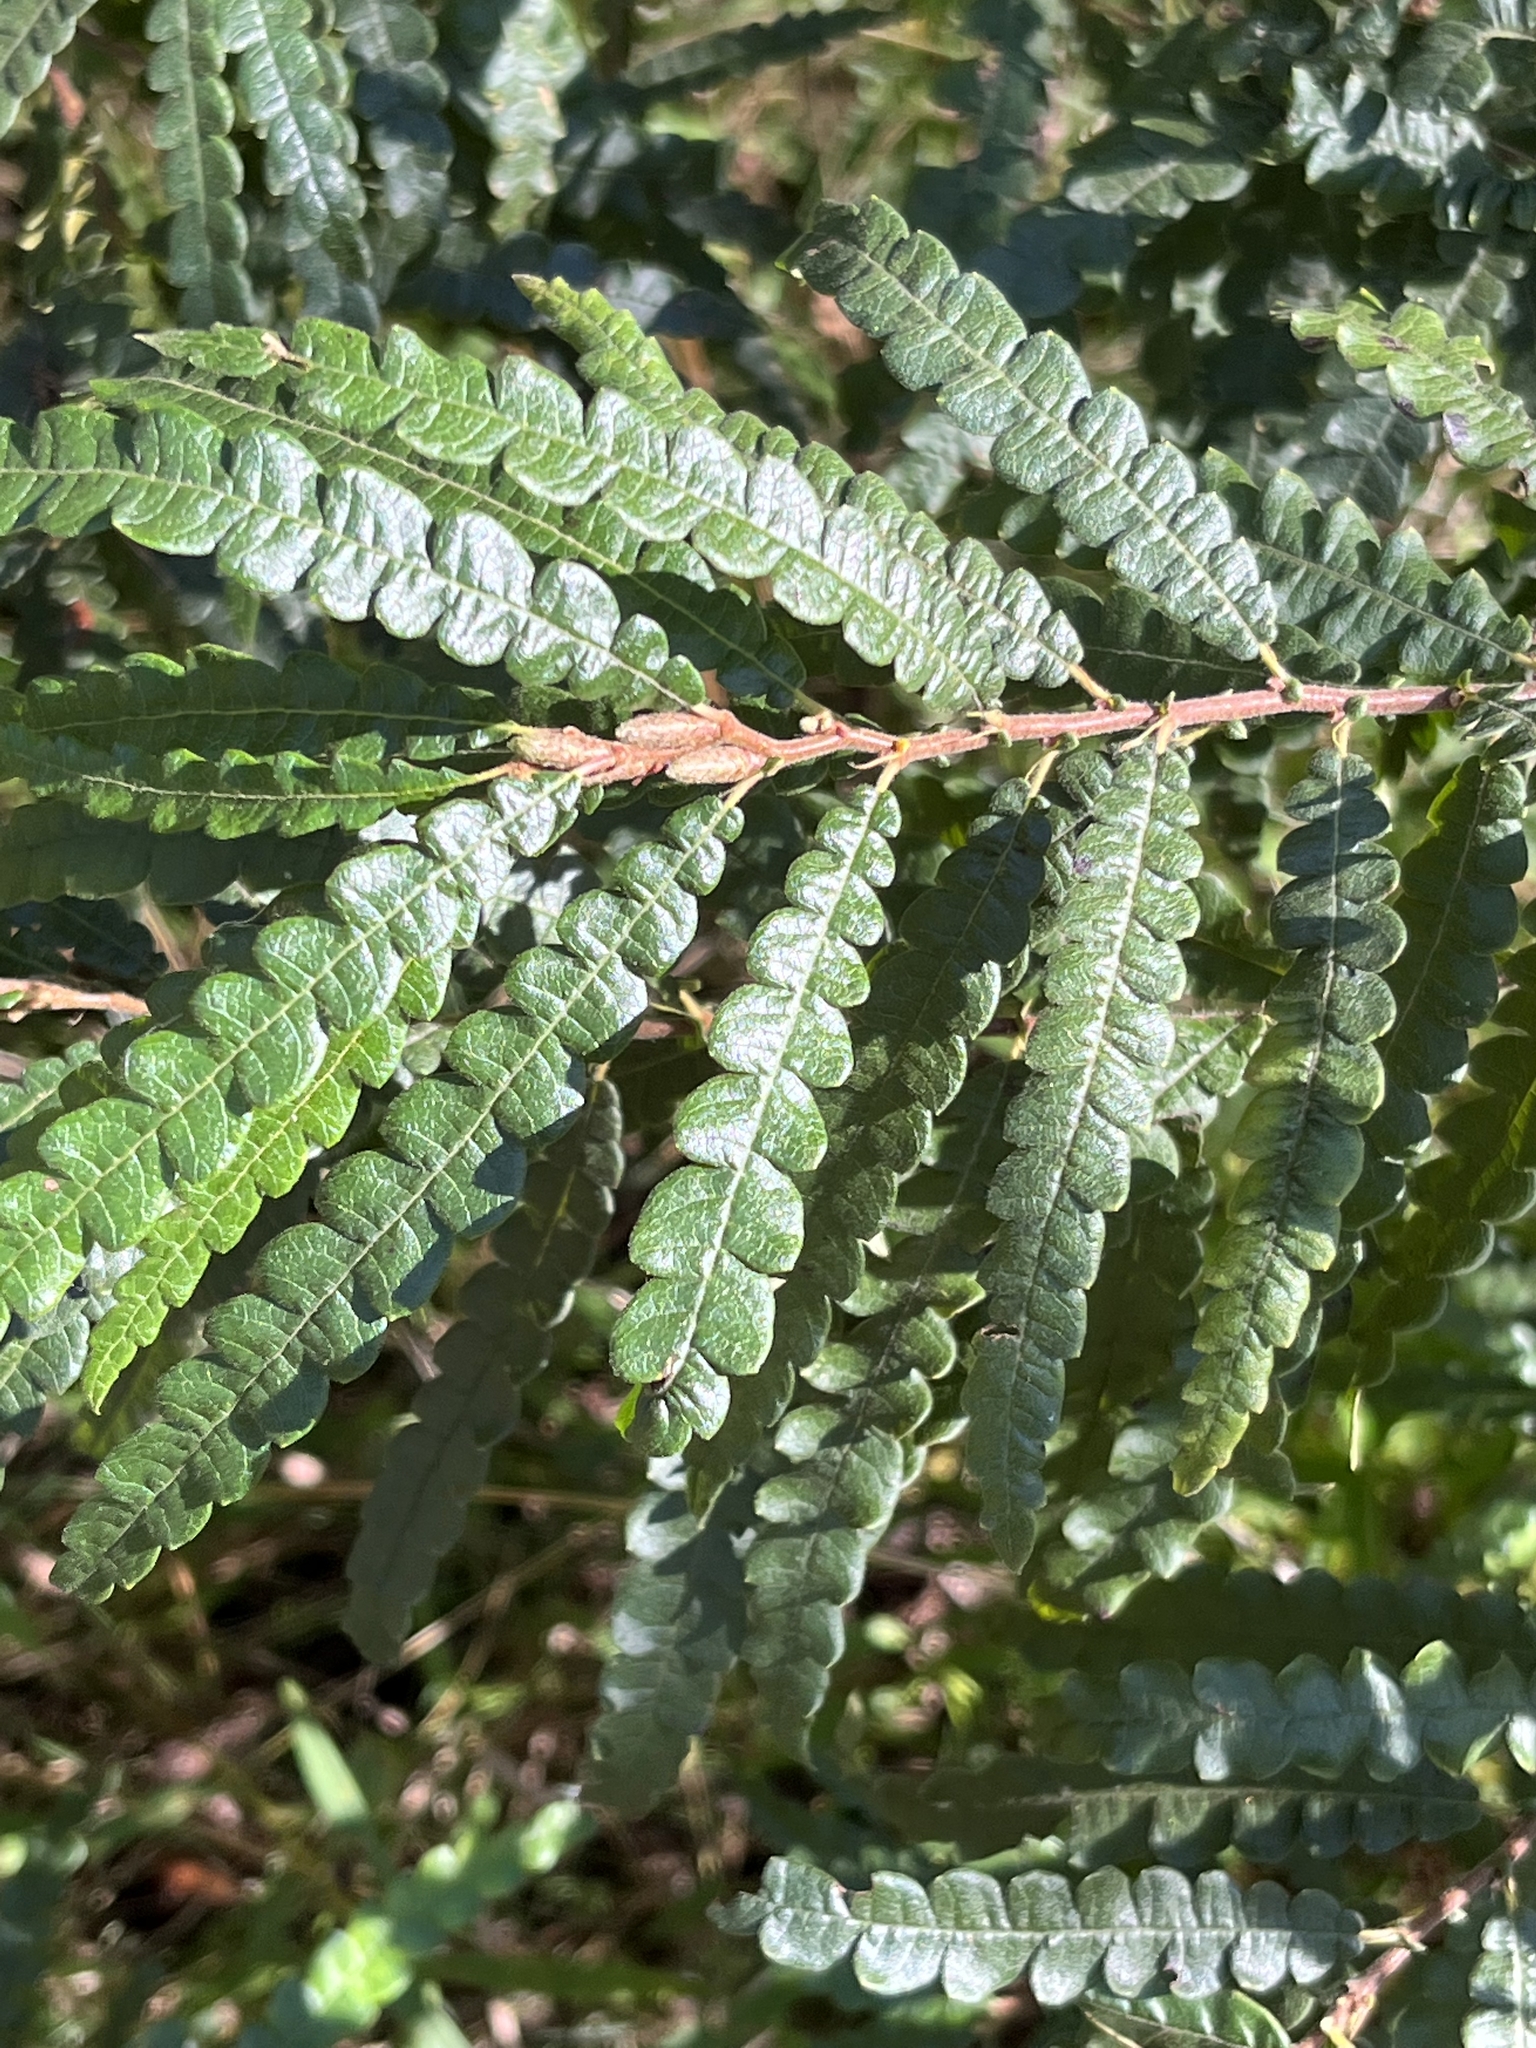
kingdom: Plantae
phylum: Tracheophyta
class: Magnoliopsida
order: Fagales
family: Myricaceae
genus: Comptonia
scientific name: Comptonia peregrina
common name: Sweet-fern
